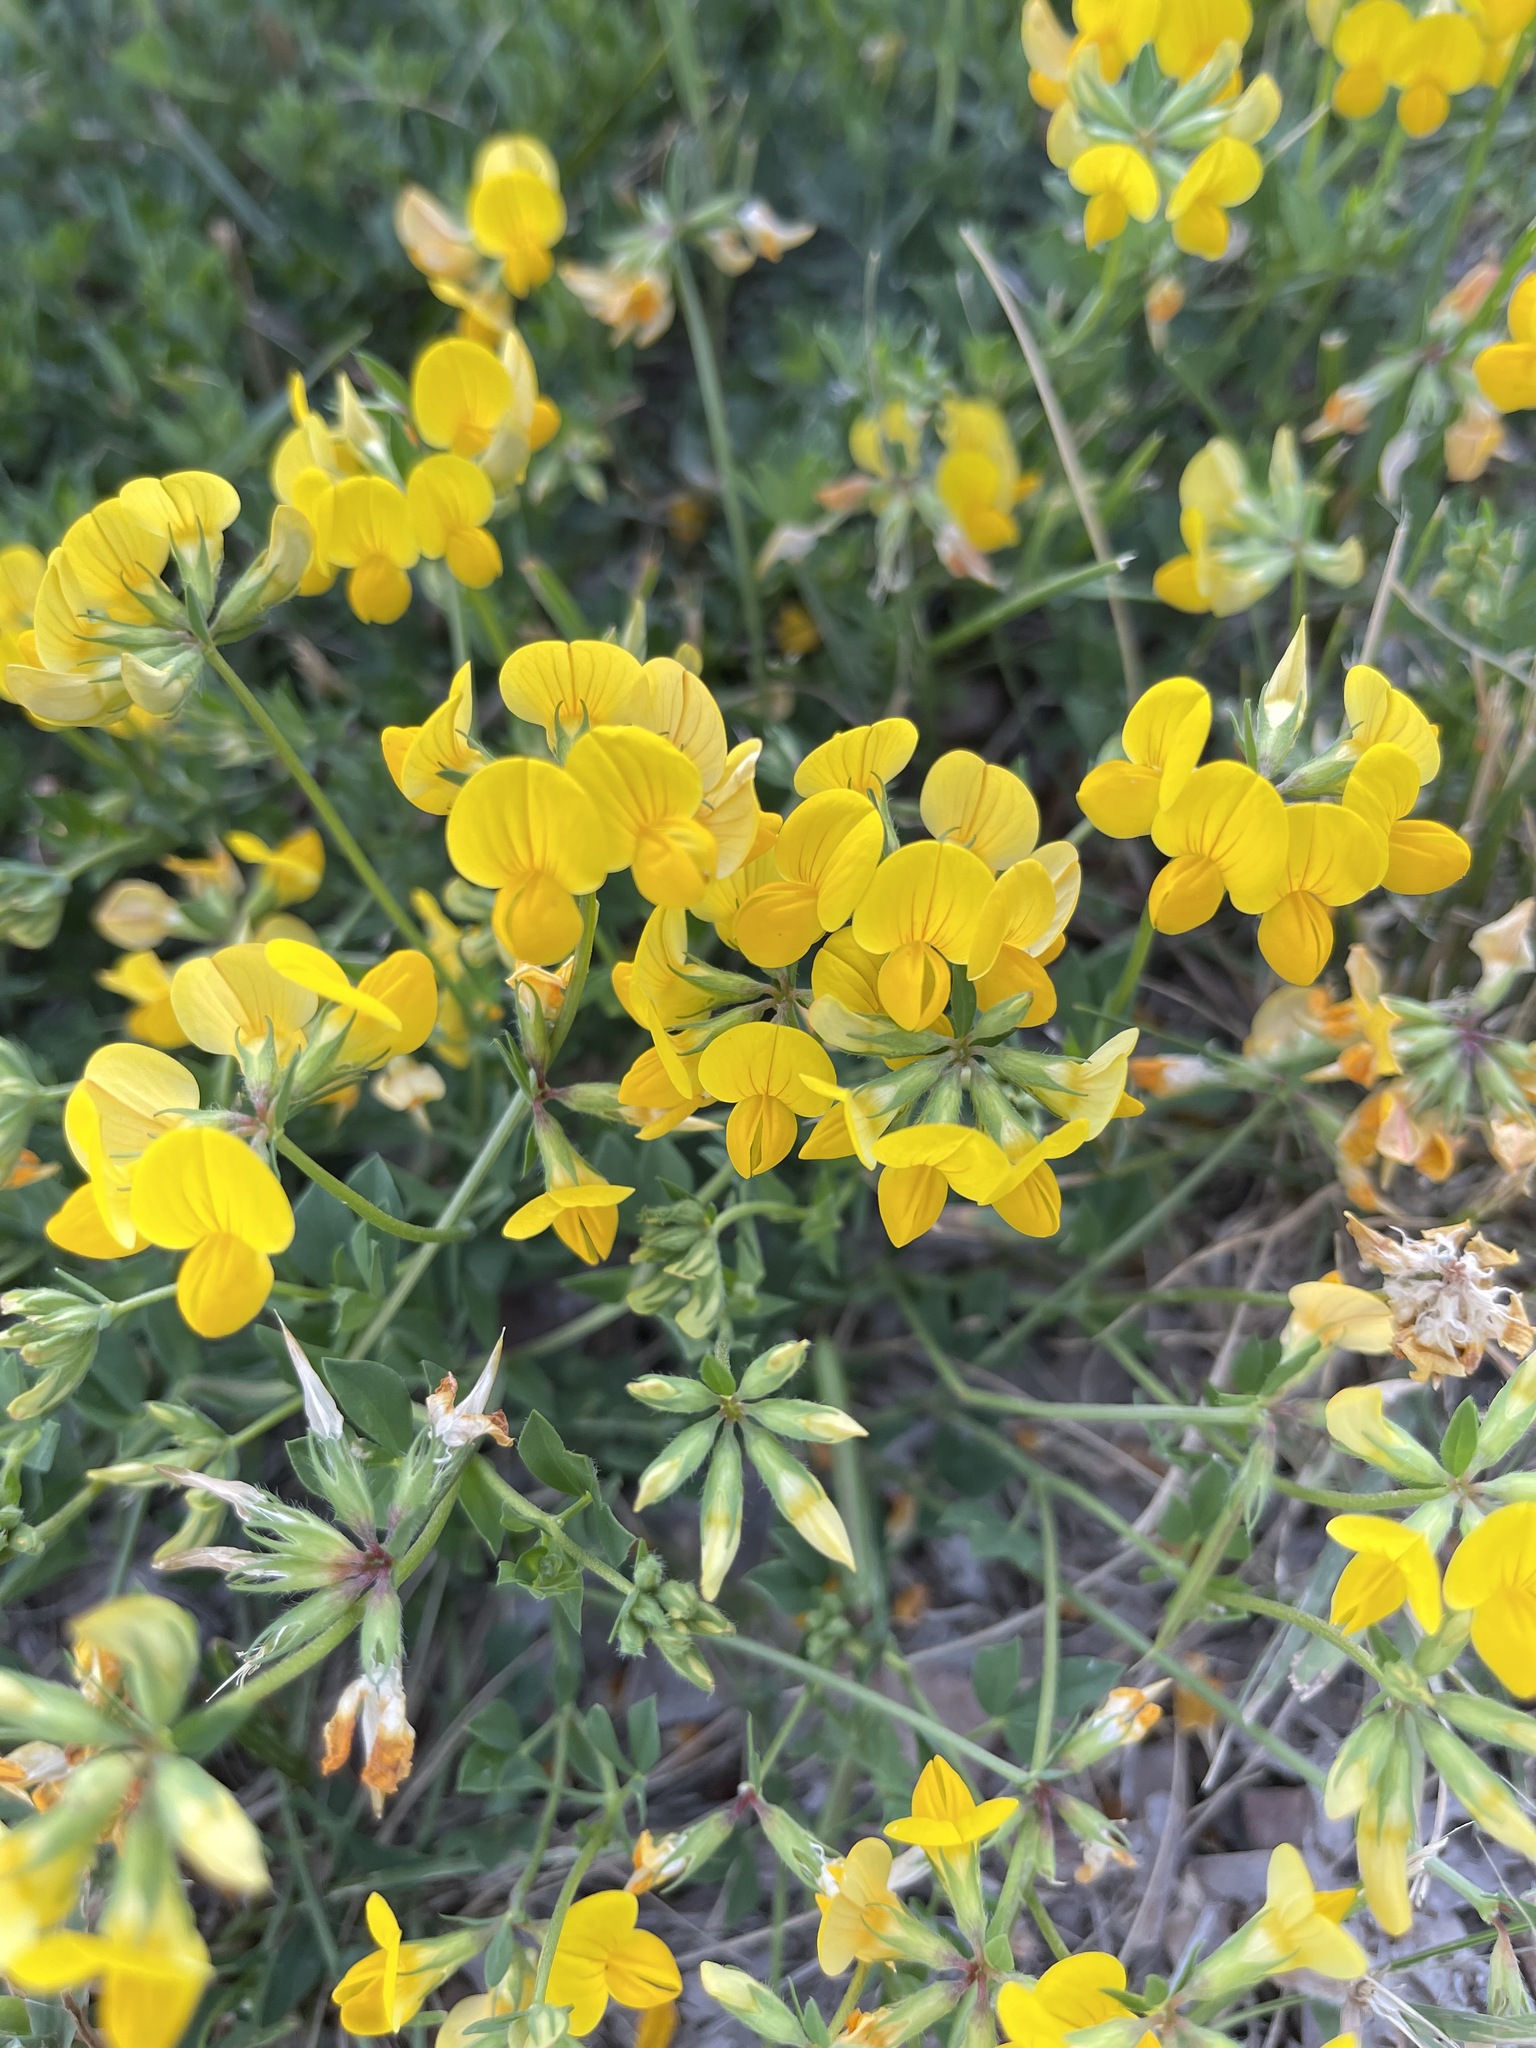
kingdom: Plantae
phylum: Tracheophyta
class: Magnoliopsida
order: Fabales
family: Fabaceae
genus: Lotus
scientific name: Lotus corniculatus
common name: Common bird's-foot-trefoil
